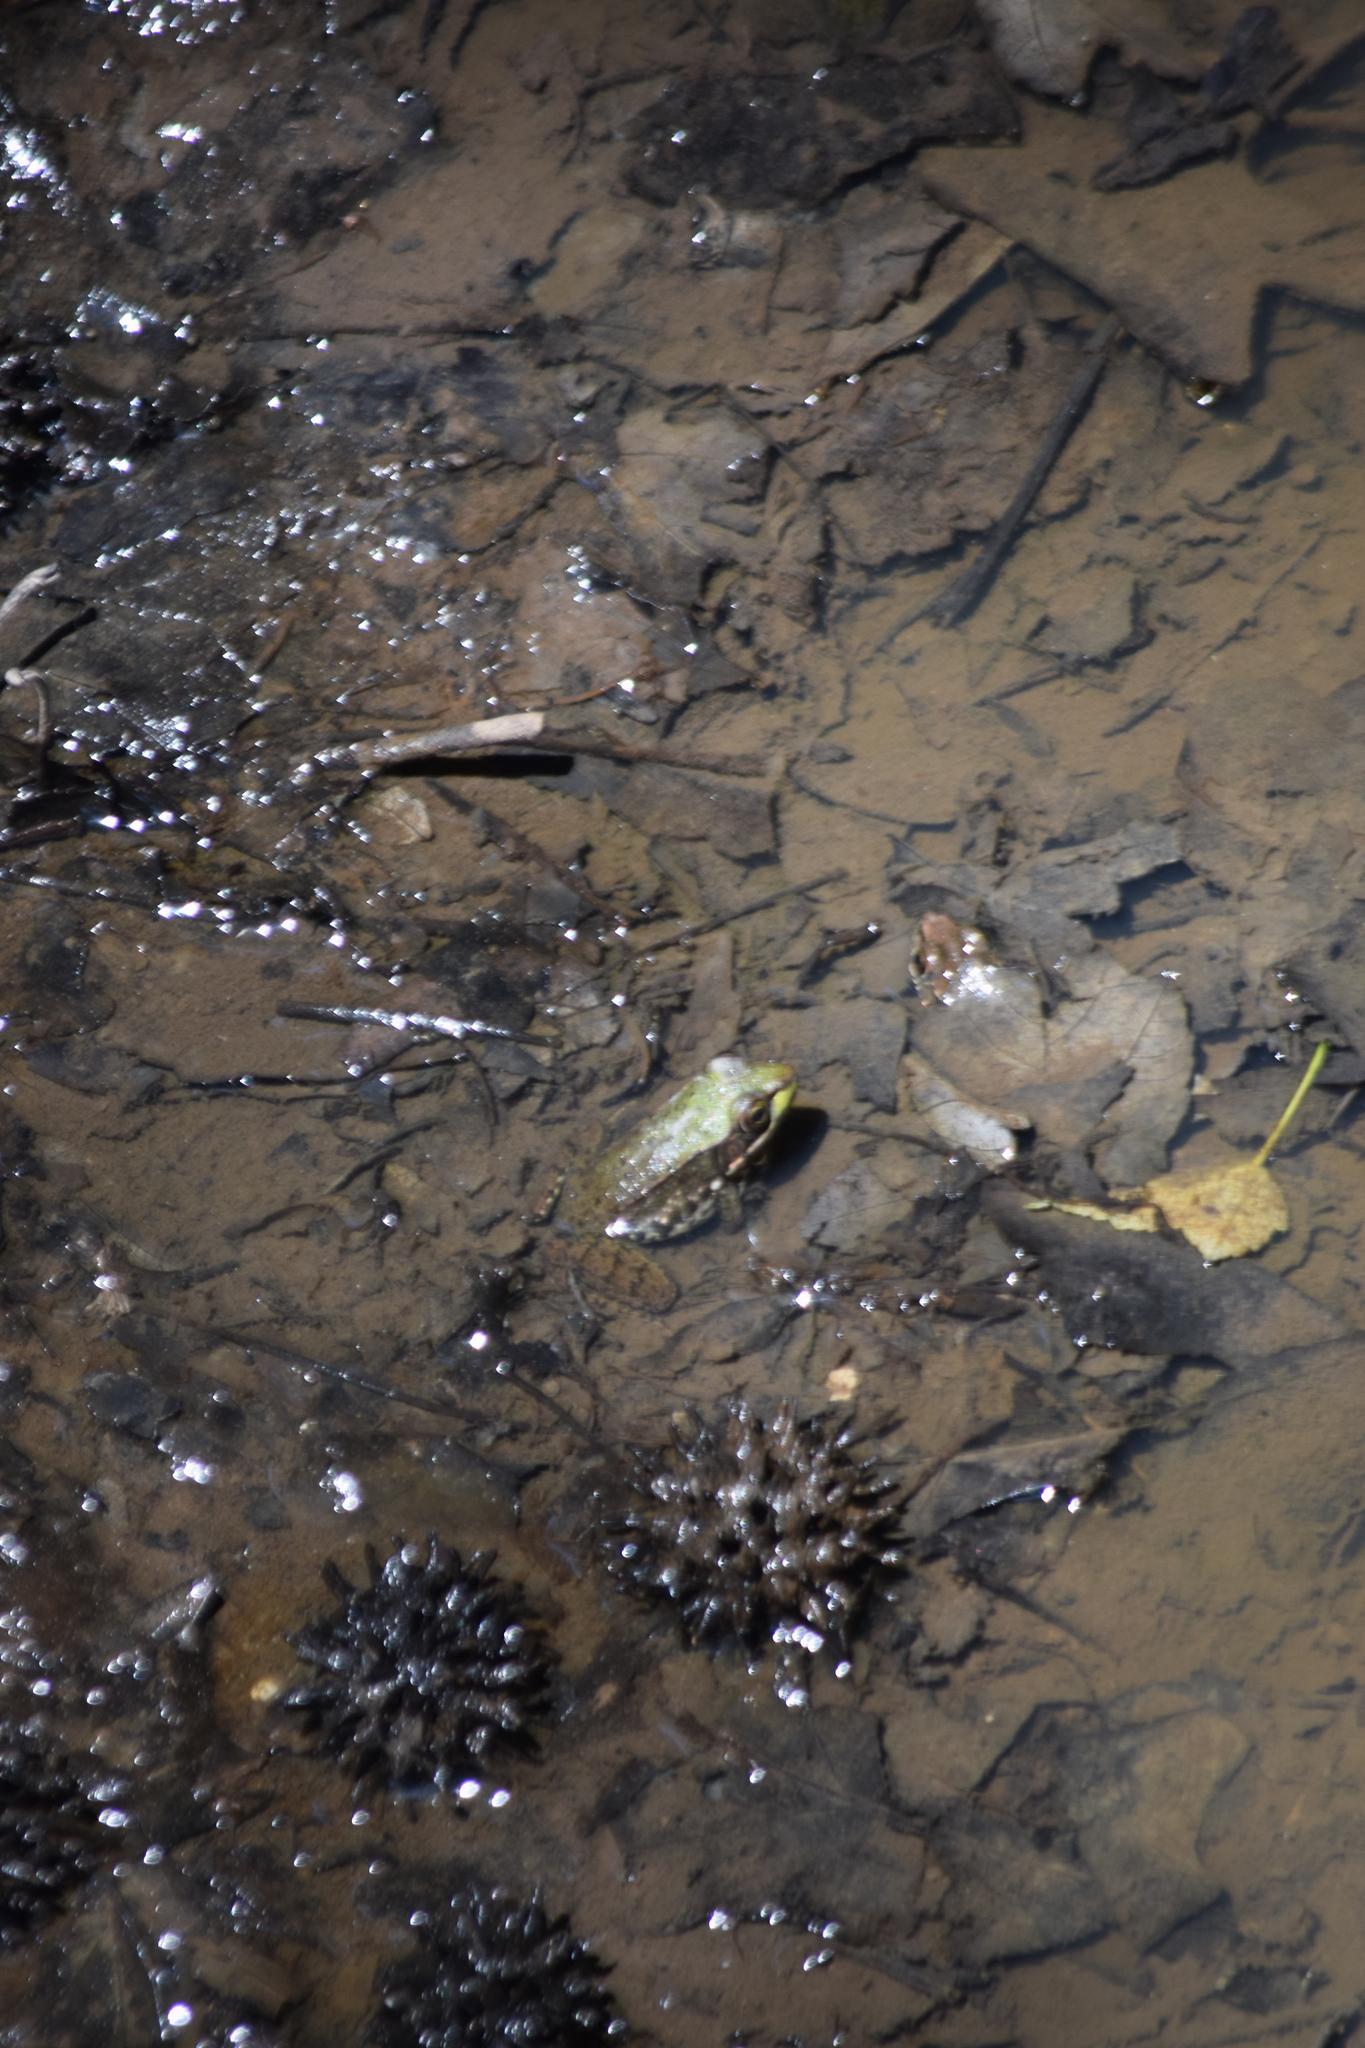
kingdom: Animalia
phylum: Chordata
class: Amphibia
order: Anura
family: Ranidae
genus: Lithobates
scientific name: Lithobates clamitans
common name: Green frog
